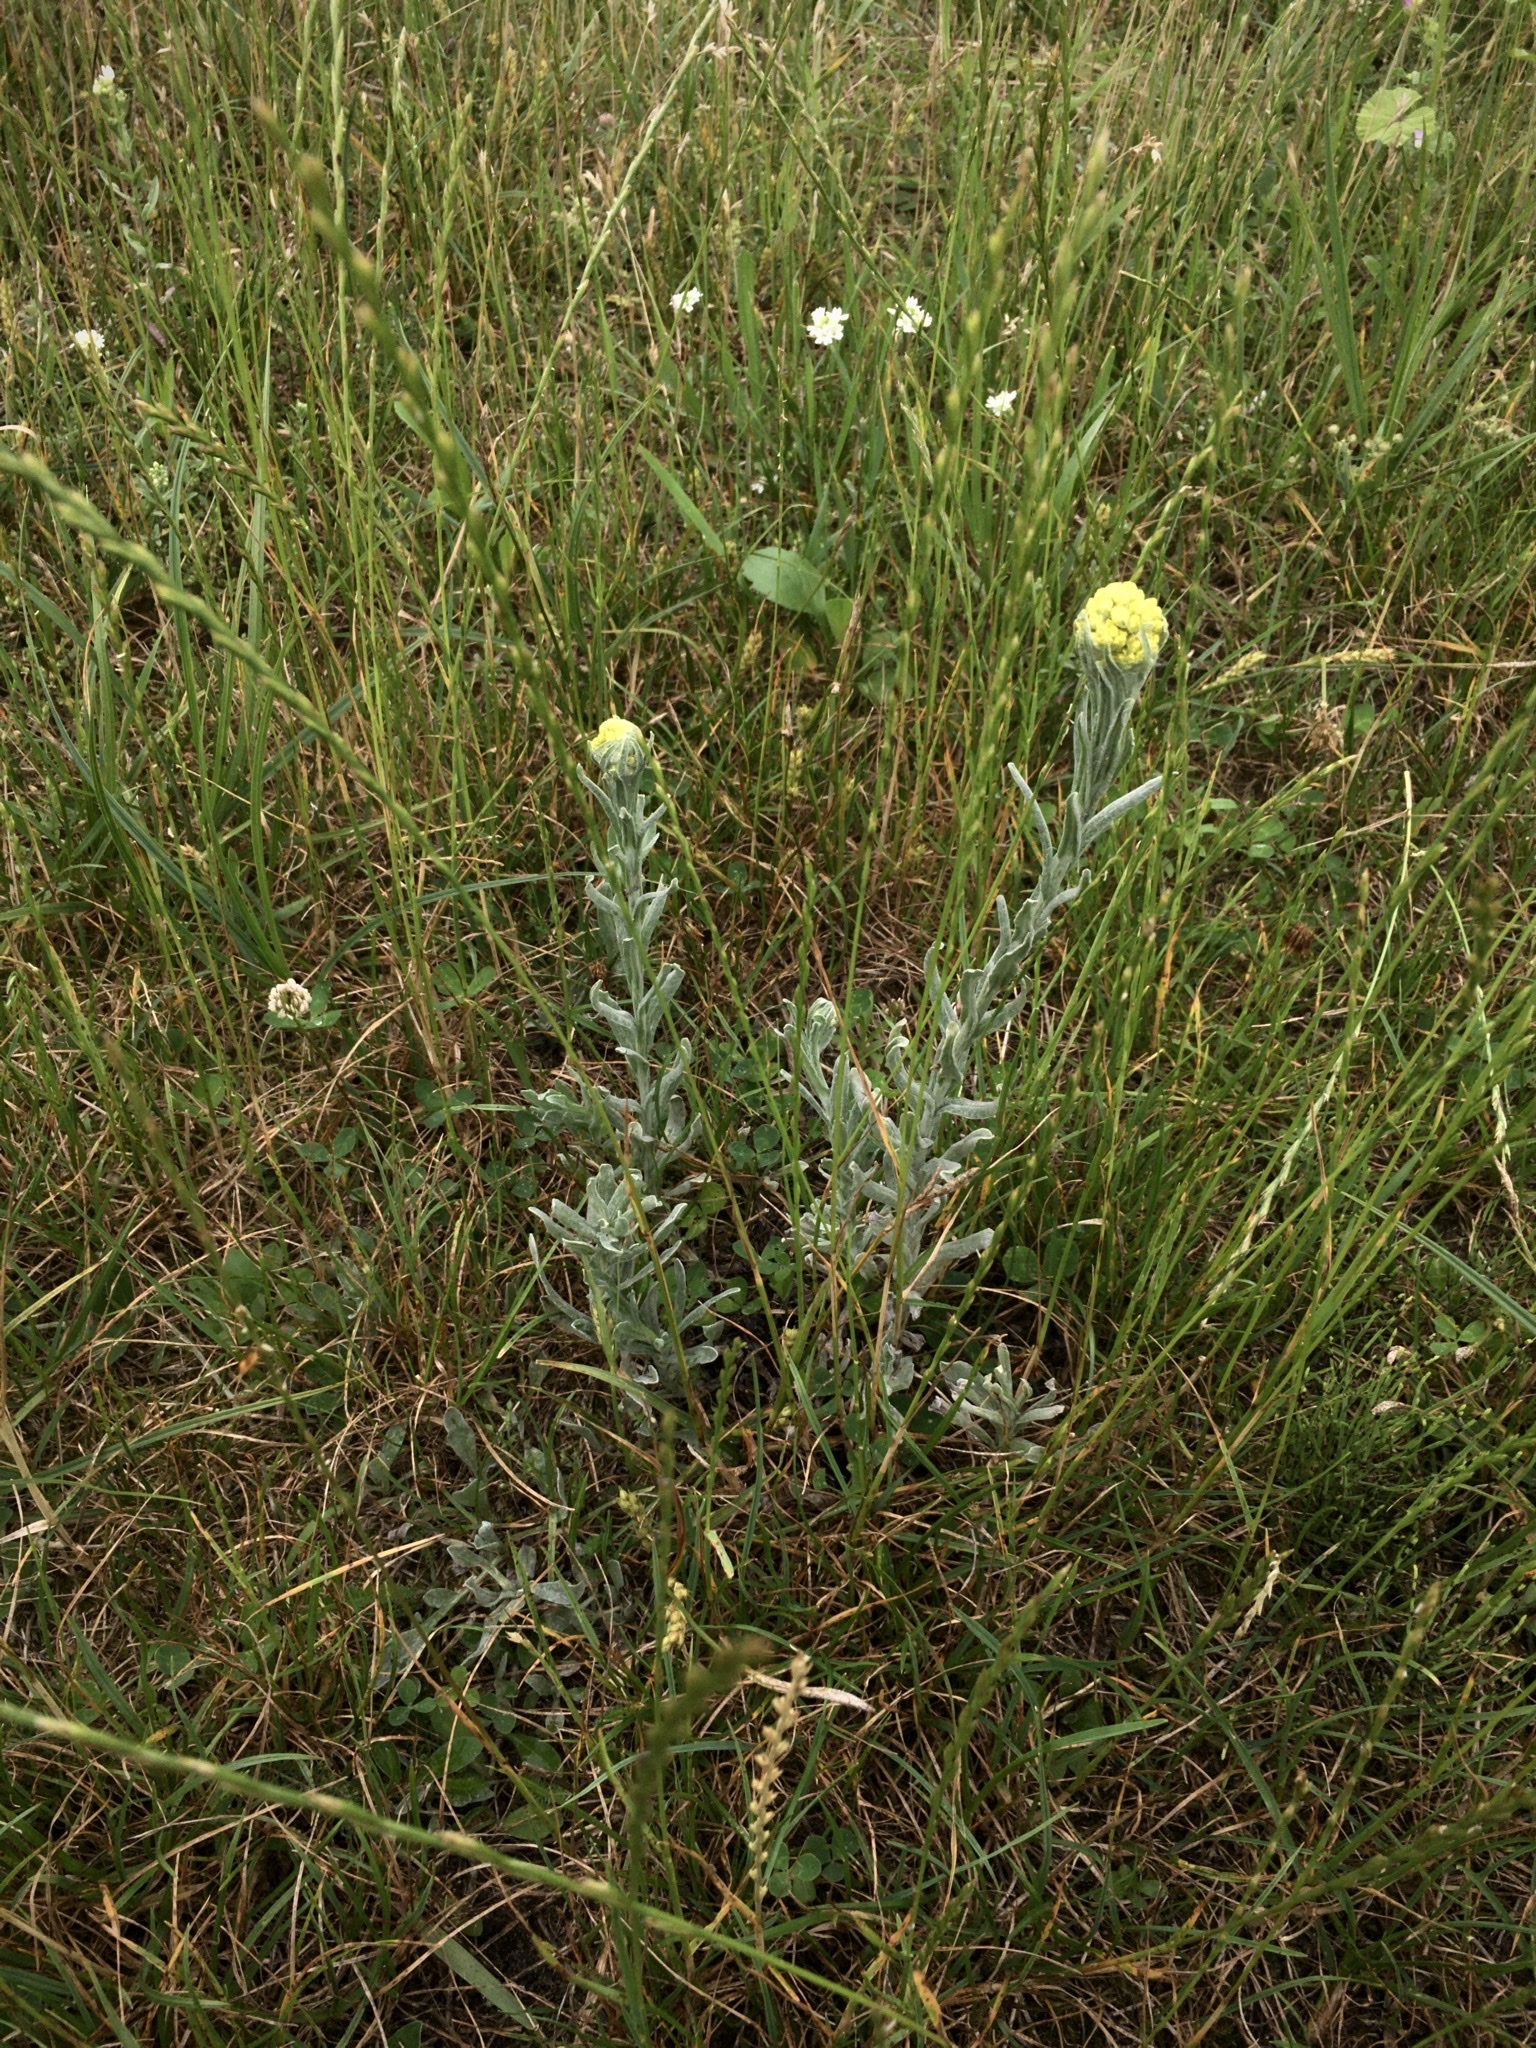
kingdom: Plantae
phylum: Tracheophyta
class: Magnoliopsida
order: Asterales
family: Asteraceae
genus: Helichrysum
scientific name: Helichrysum arenarium
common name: Strawflower
